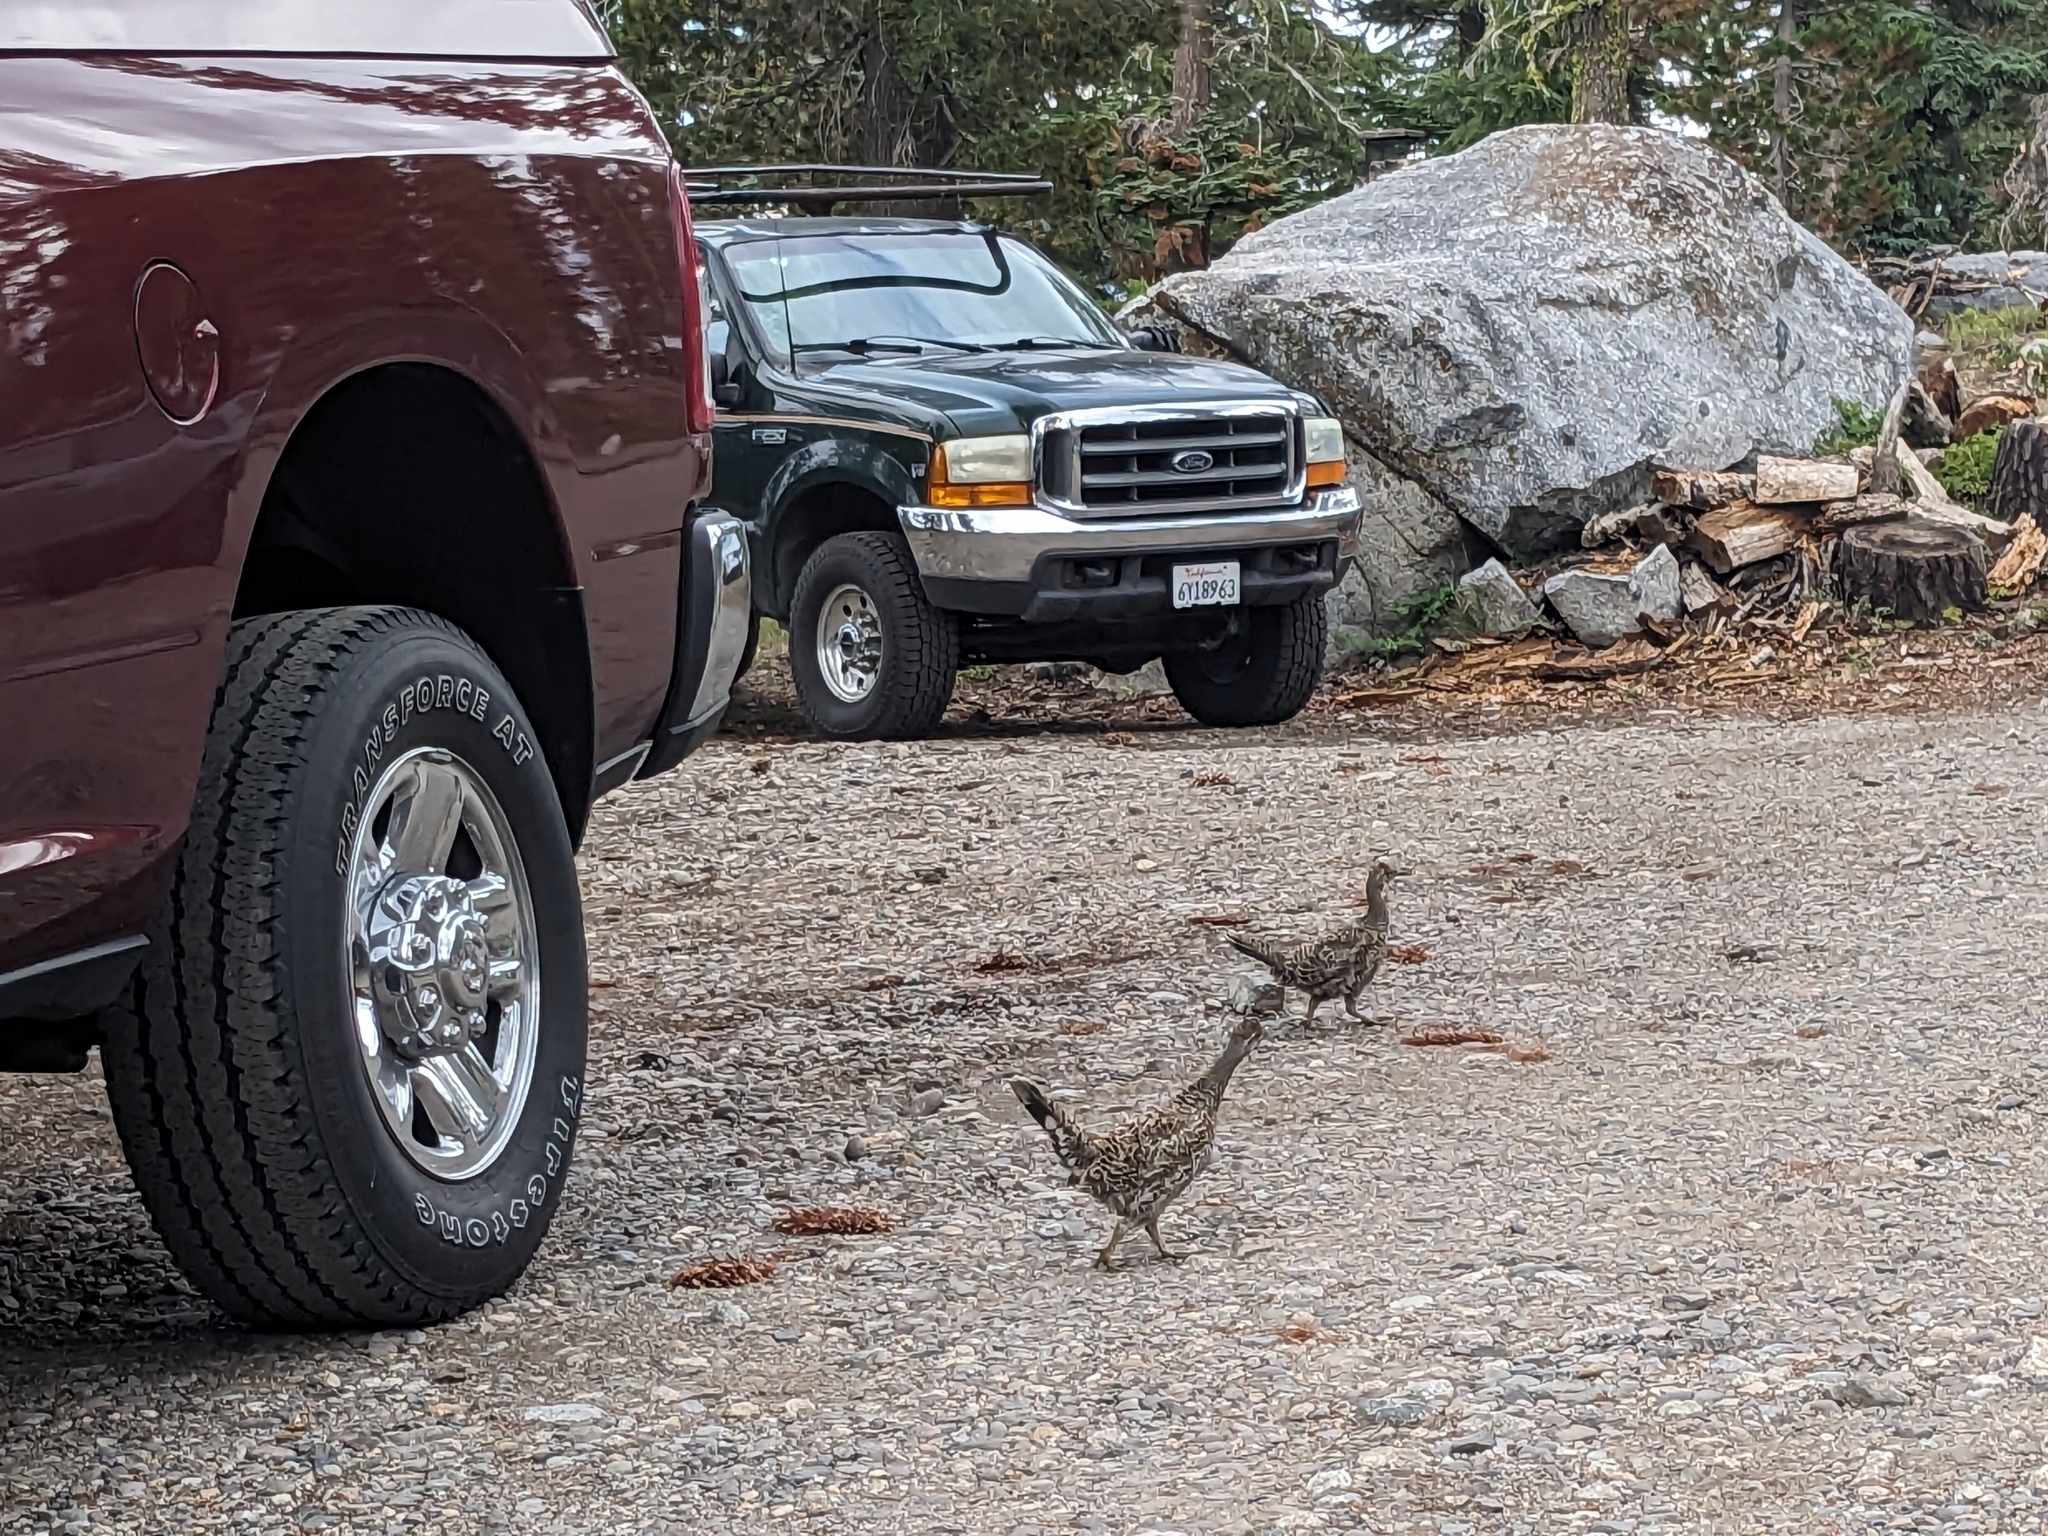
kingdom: Animalia
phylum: Chordata
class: Aves
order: Galliformes
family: Phasianidae
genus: Dendragapus
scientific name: Dendragapus fuliginosus
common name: Sooty grouse
